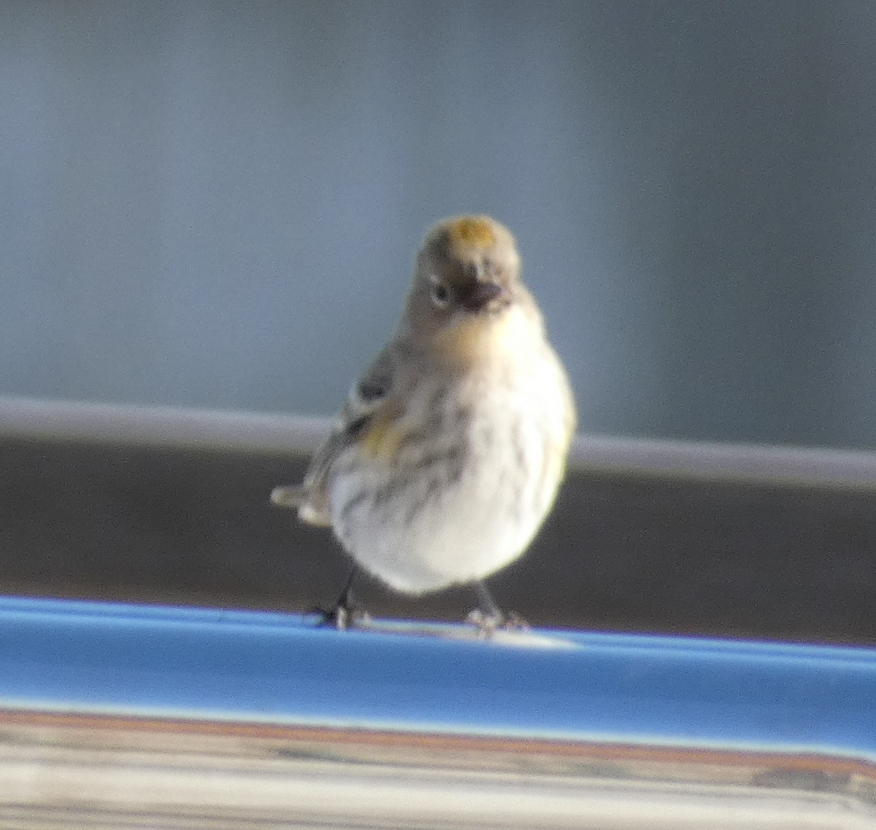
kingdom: Animalia
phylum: Chordata
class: Aves
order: Passeriformes
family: Parulidae
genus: Setophaga
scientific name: Setophaga coronata
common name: Myrtle warbler
